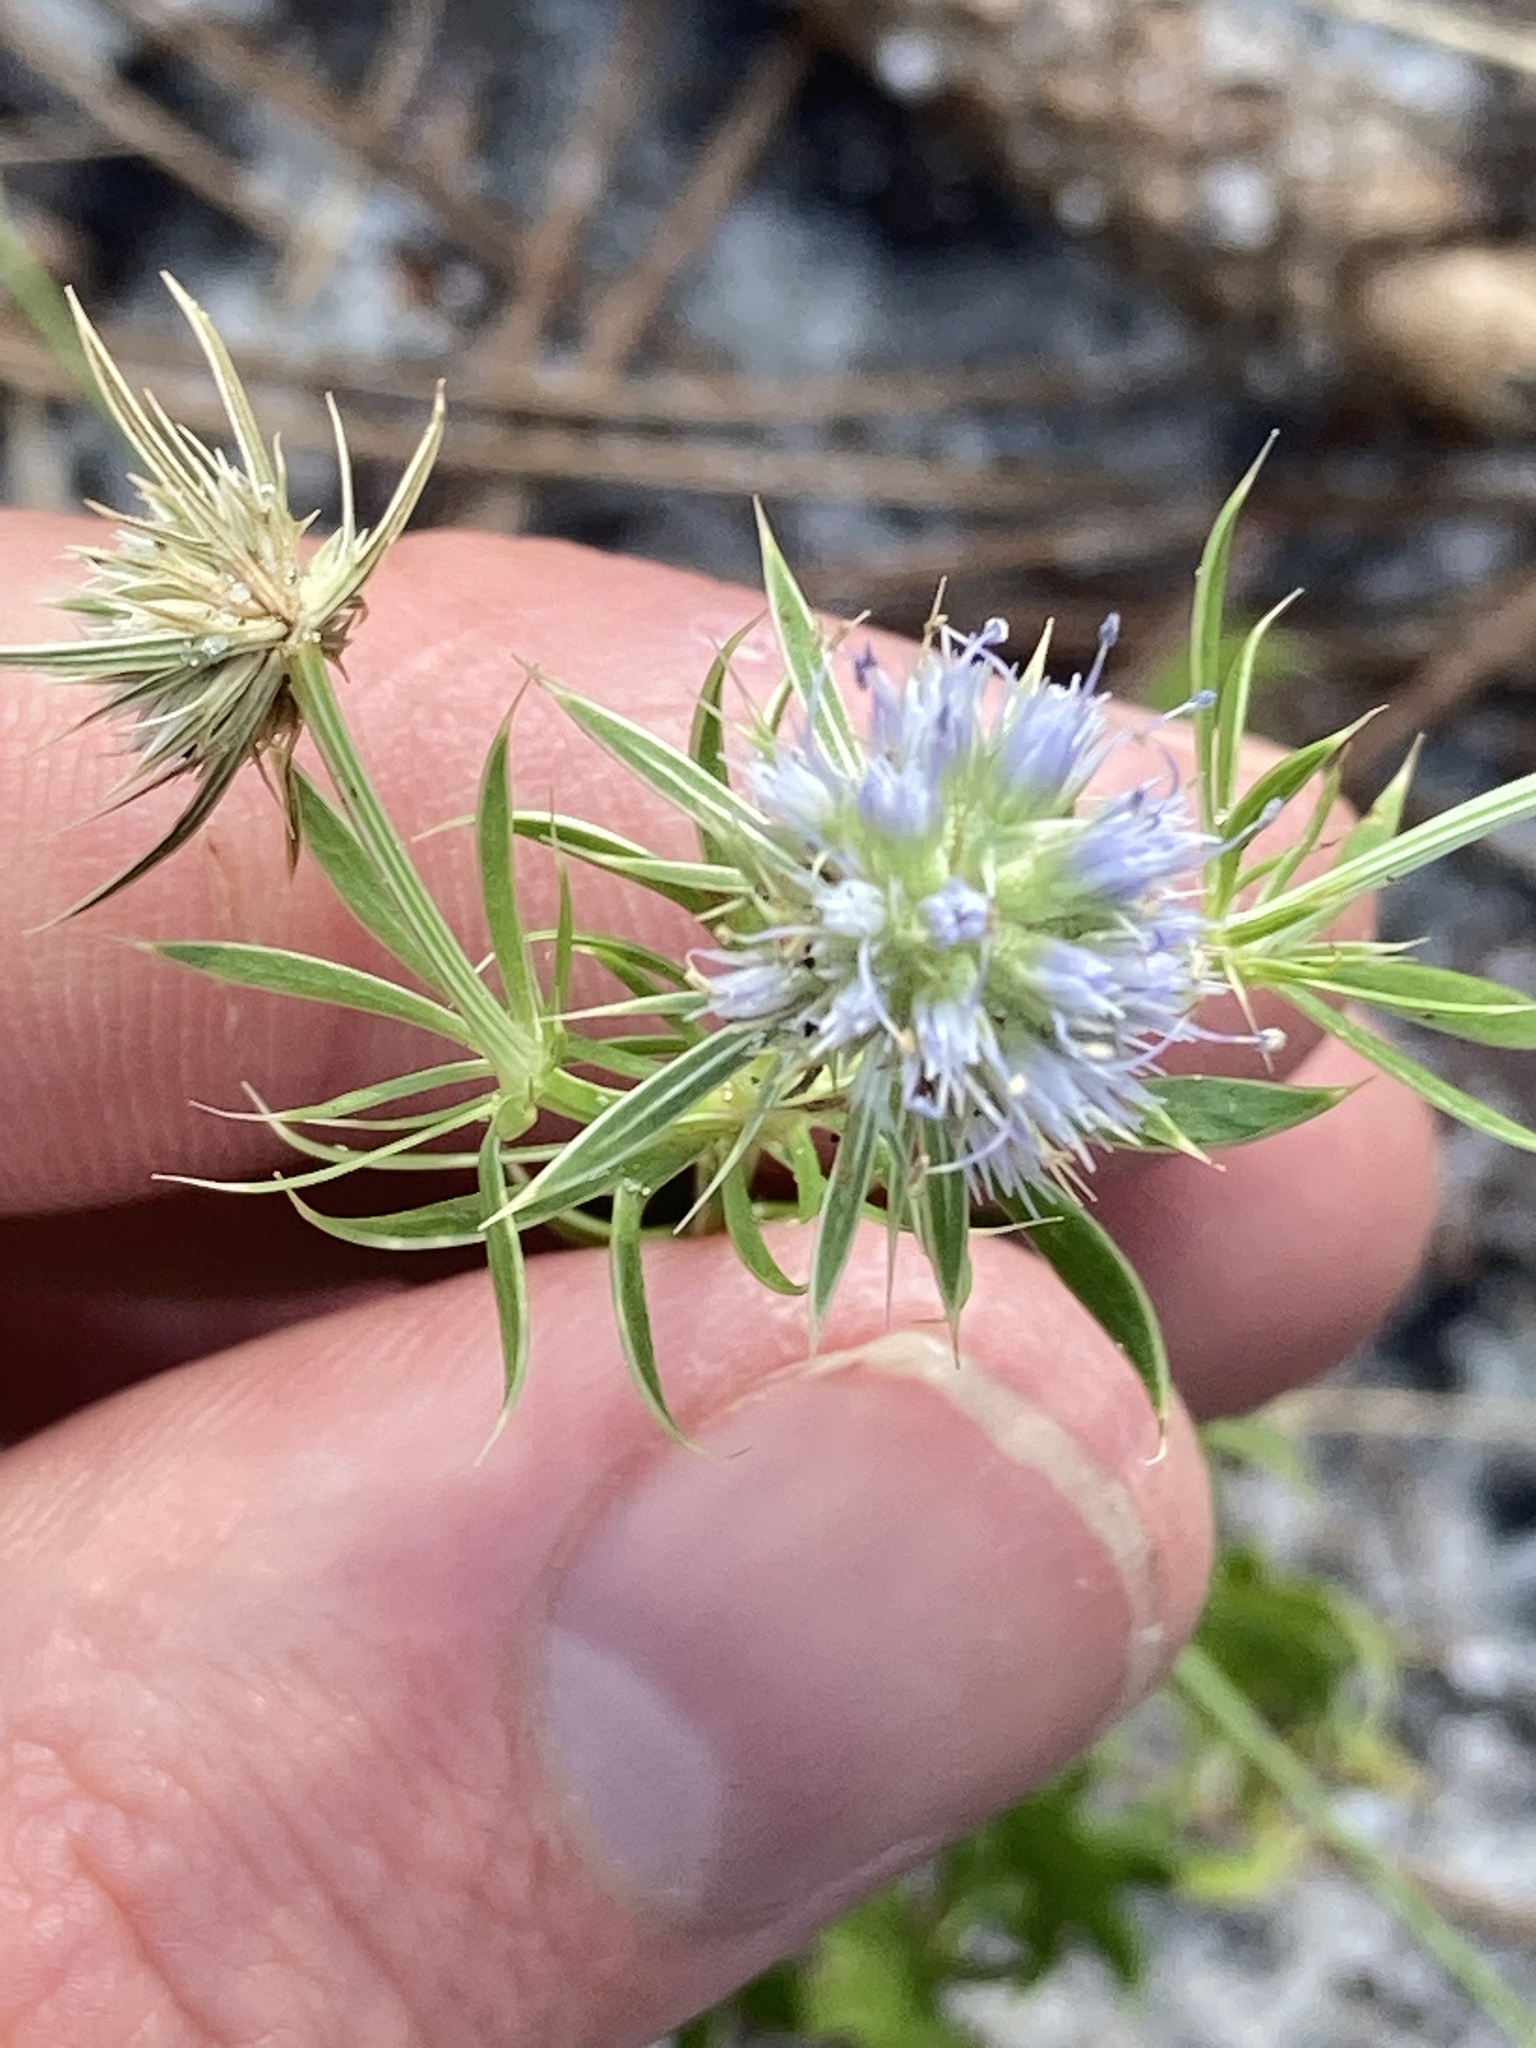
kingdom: Plantae
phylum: Tracheophyta
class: Magnoliopsida
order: Apiales
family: Apiaceae
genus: Eryngium
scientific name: Eryngium aromaticum
